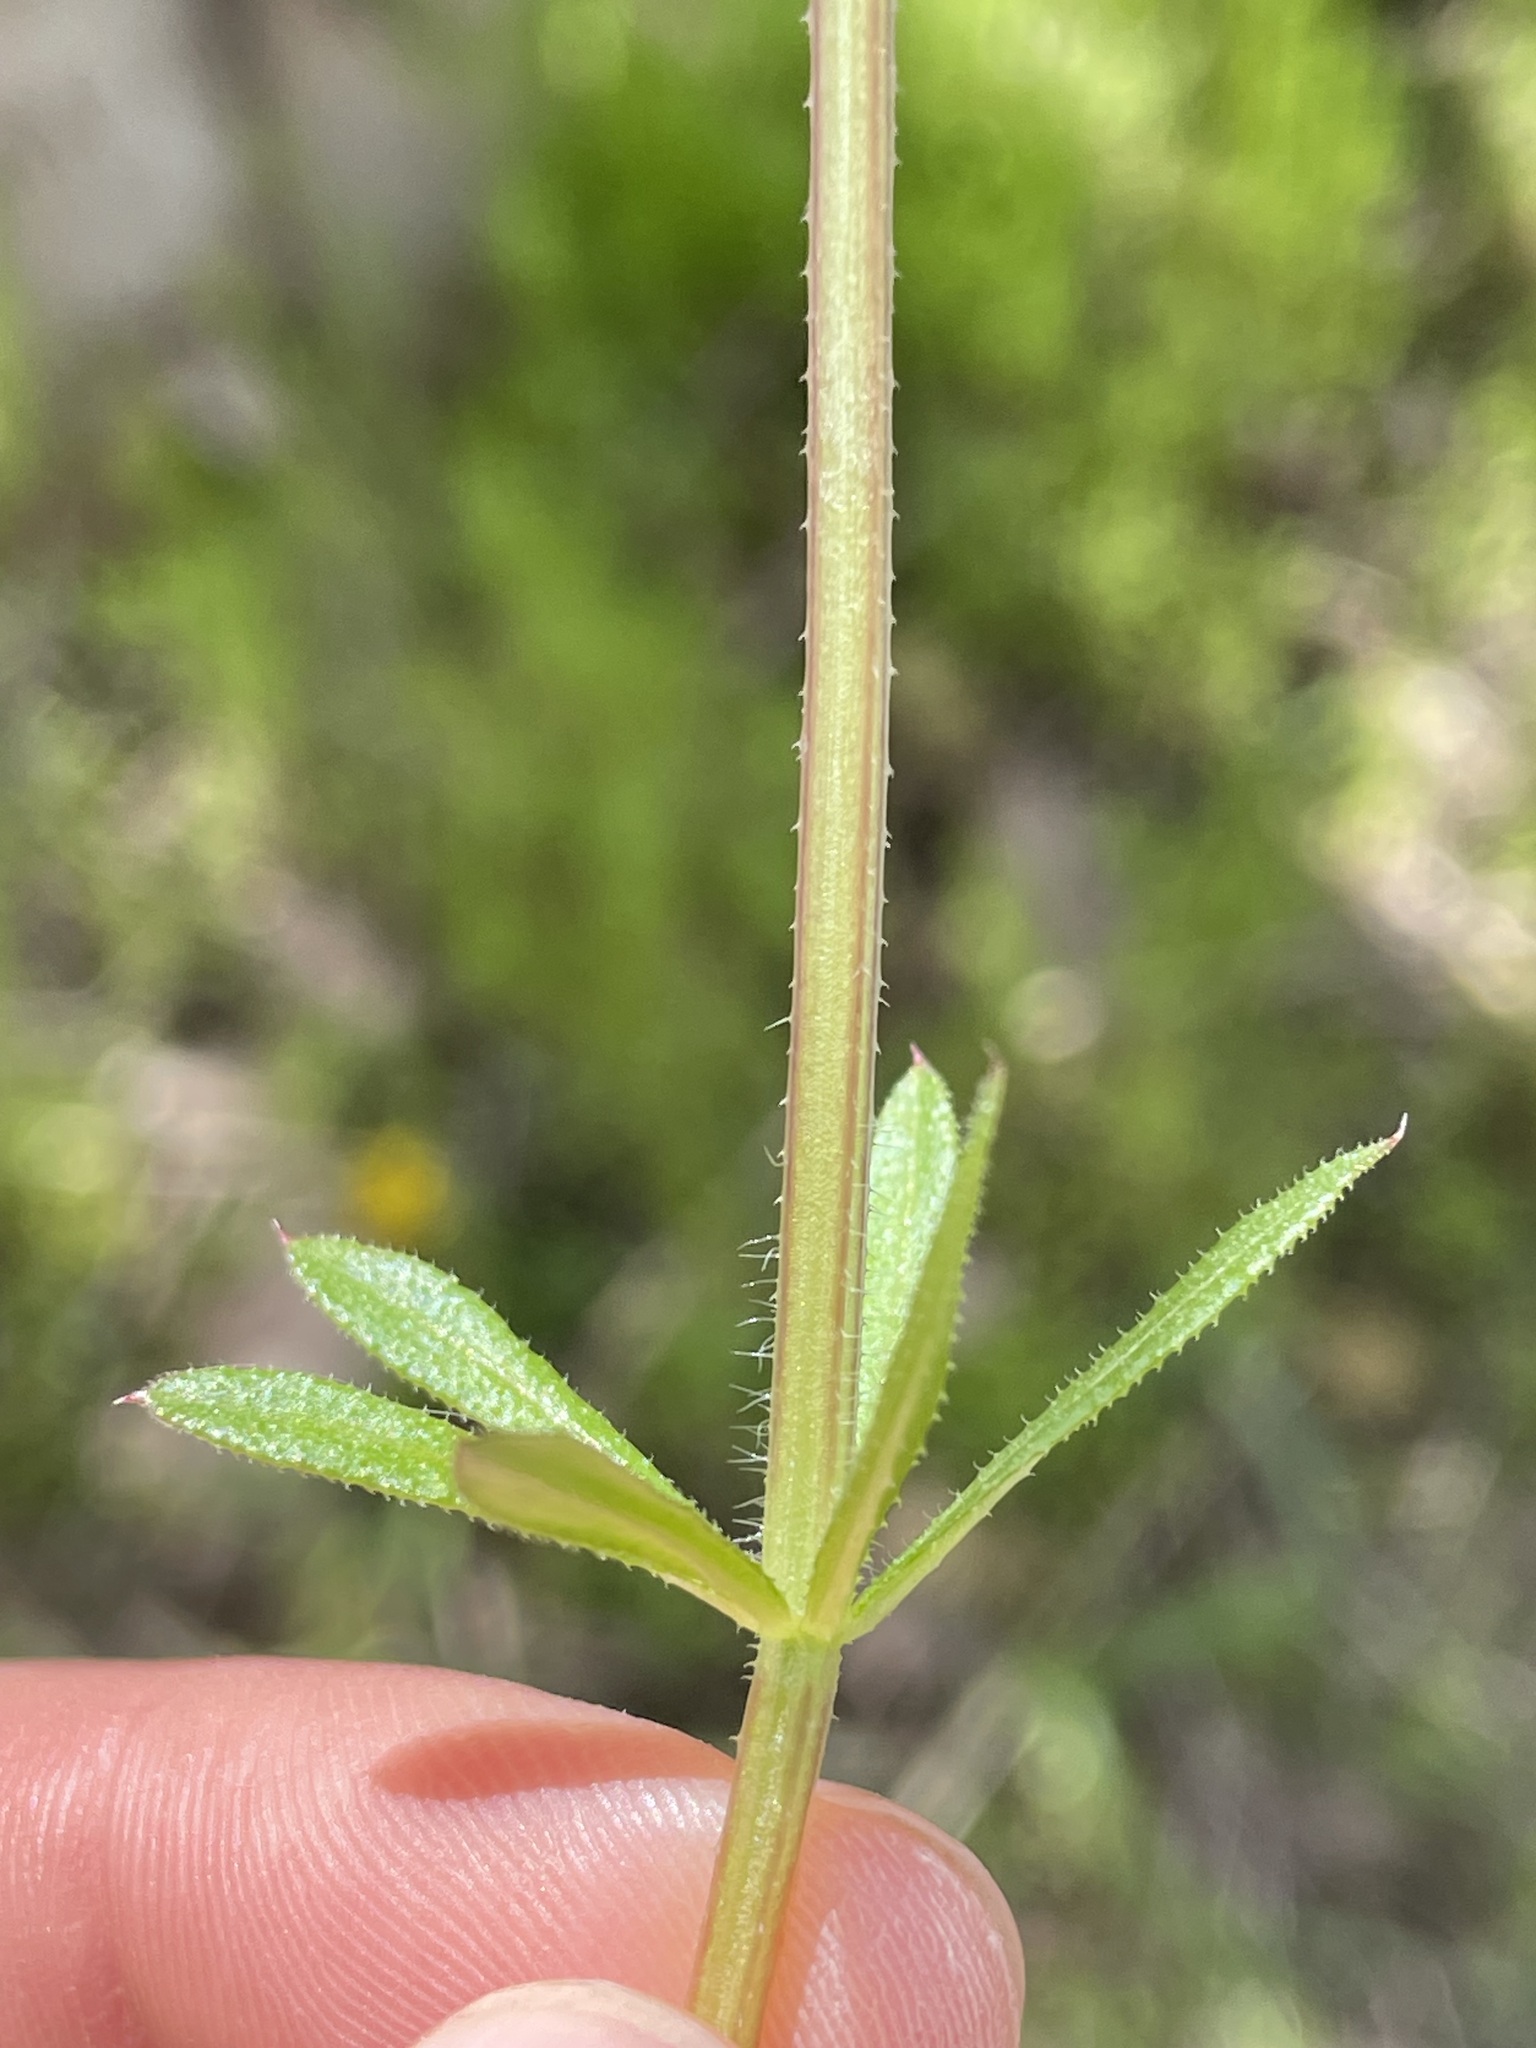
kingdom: Plantae
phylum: Tracheophyta
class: Magnoliopsida
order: Gentianales
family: Rubiaceae
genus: Galium
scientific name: Galium aparine
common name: Cleavers
